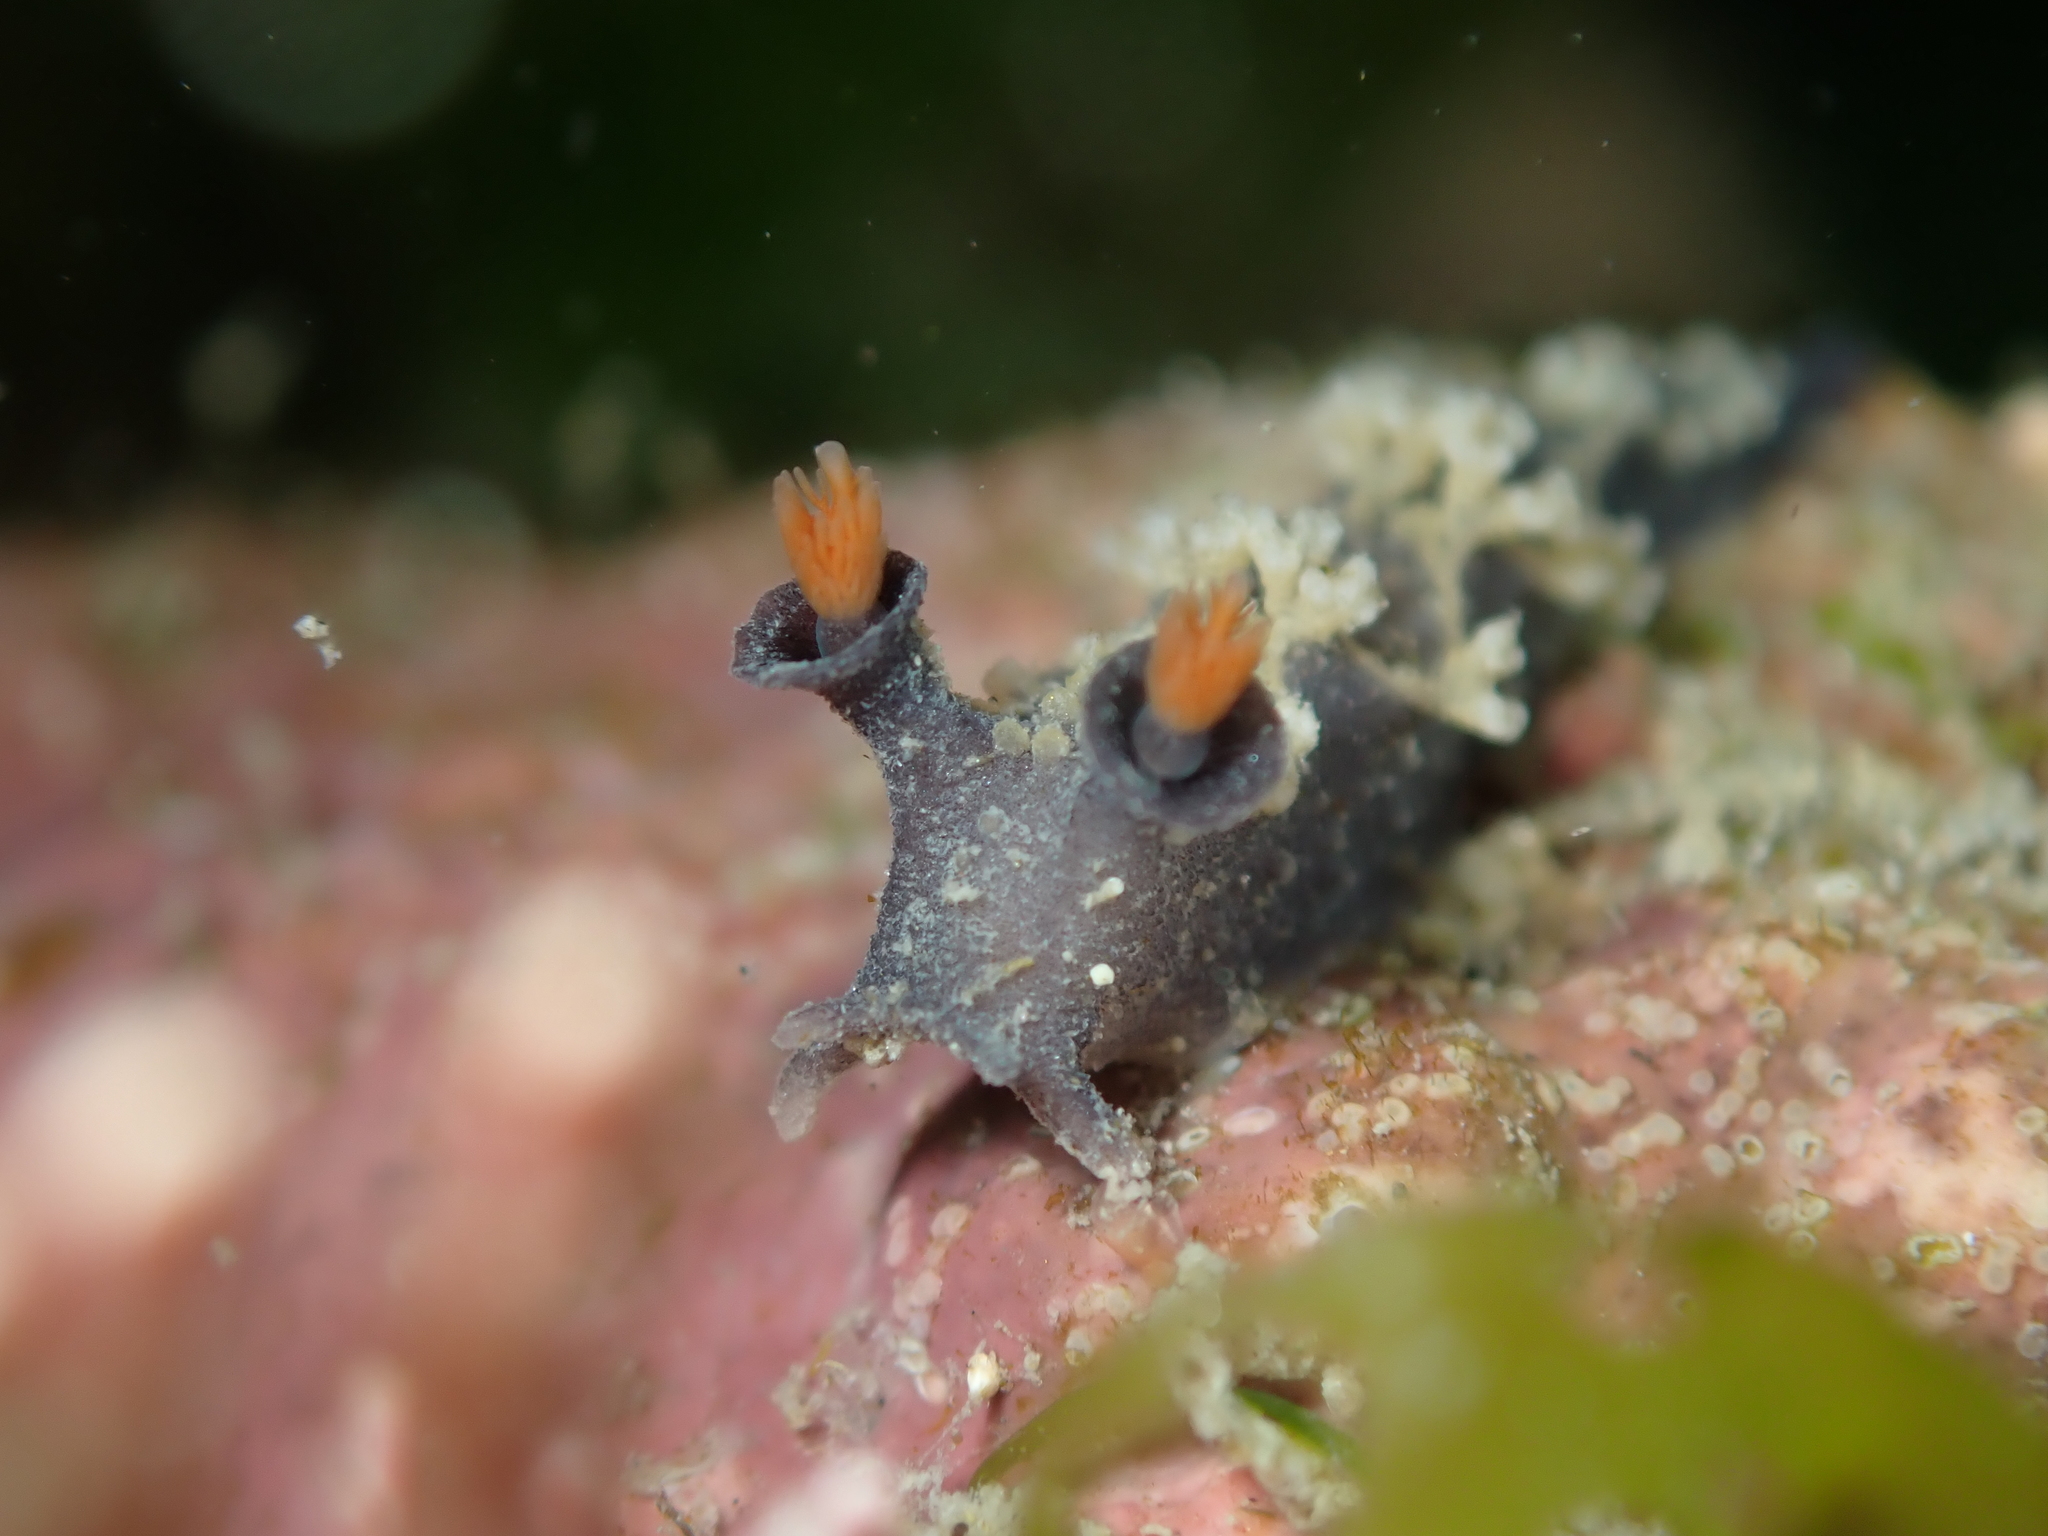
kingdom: Animalia
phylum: Mollusca
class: Gastropoda
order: Nudibranchia
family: Tritoniidae
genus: Tritonia
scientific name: Tritonia flemingi
